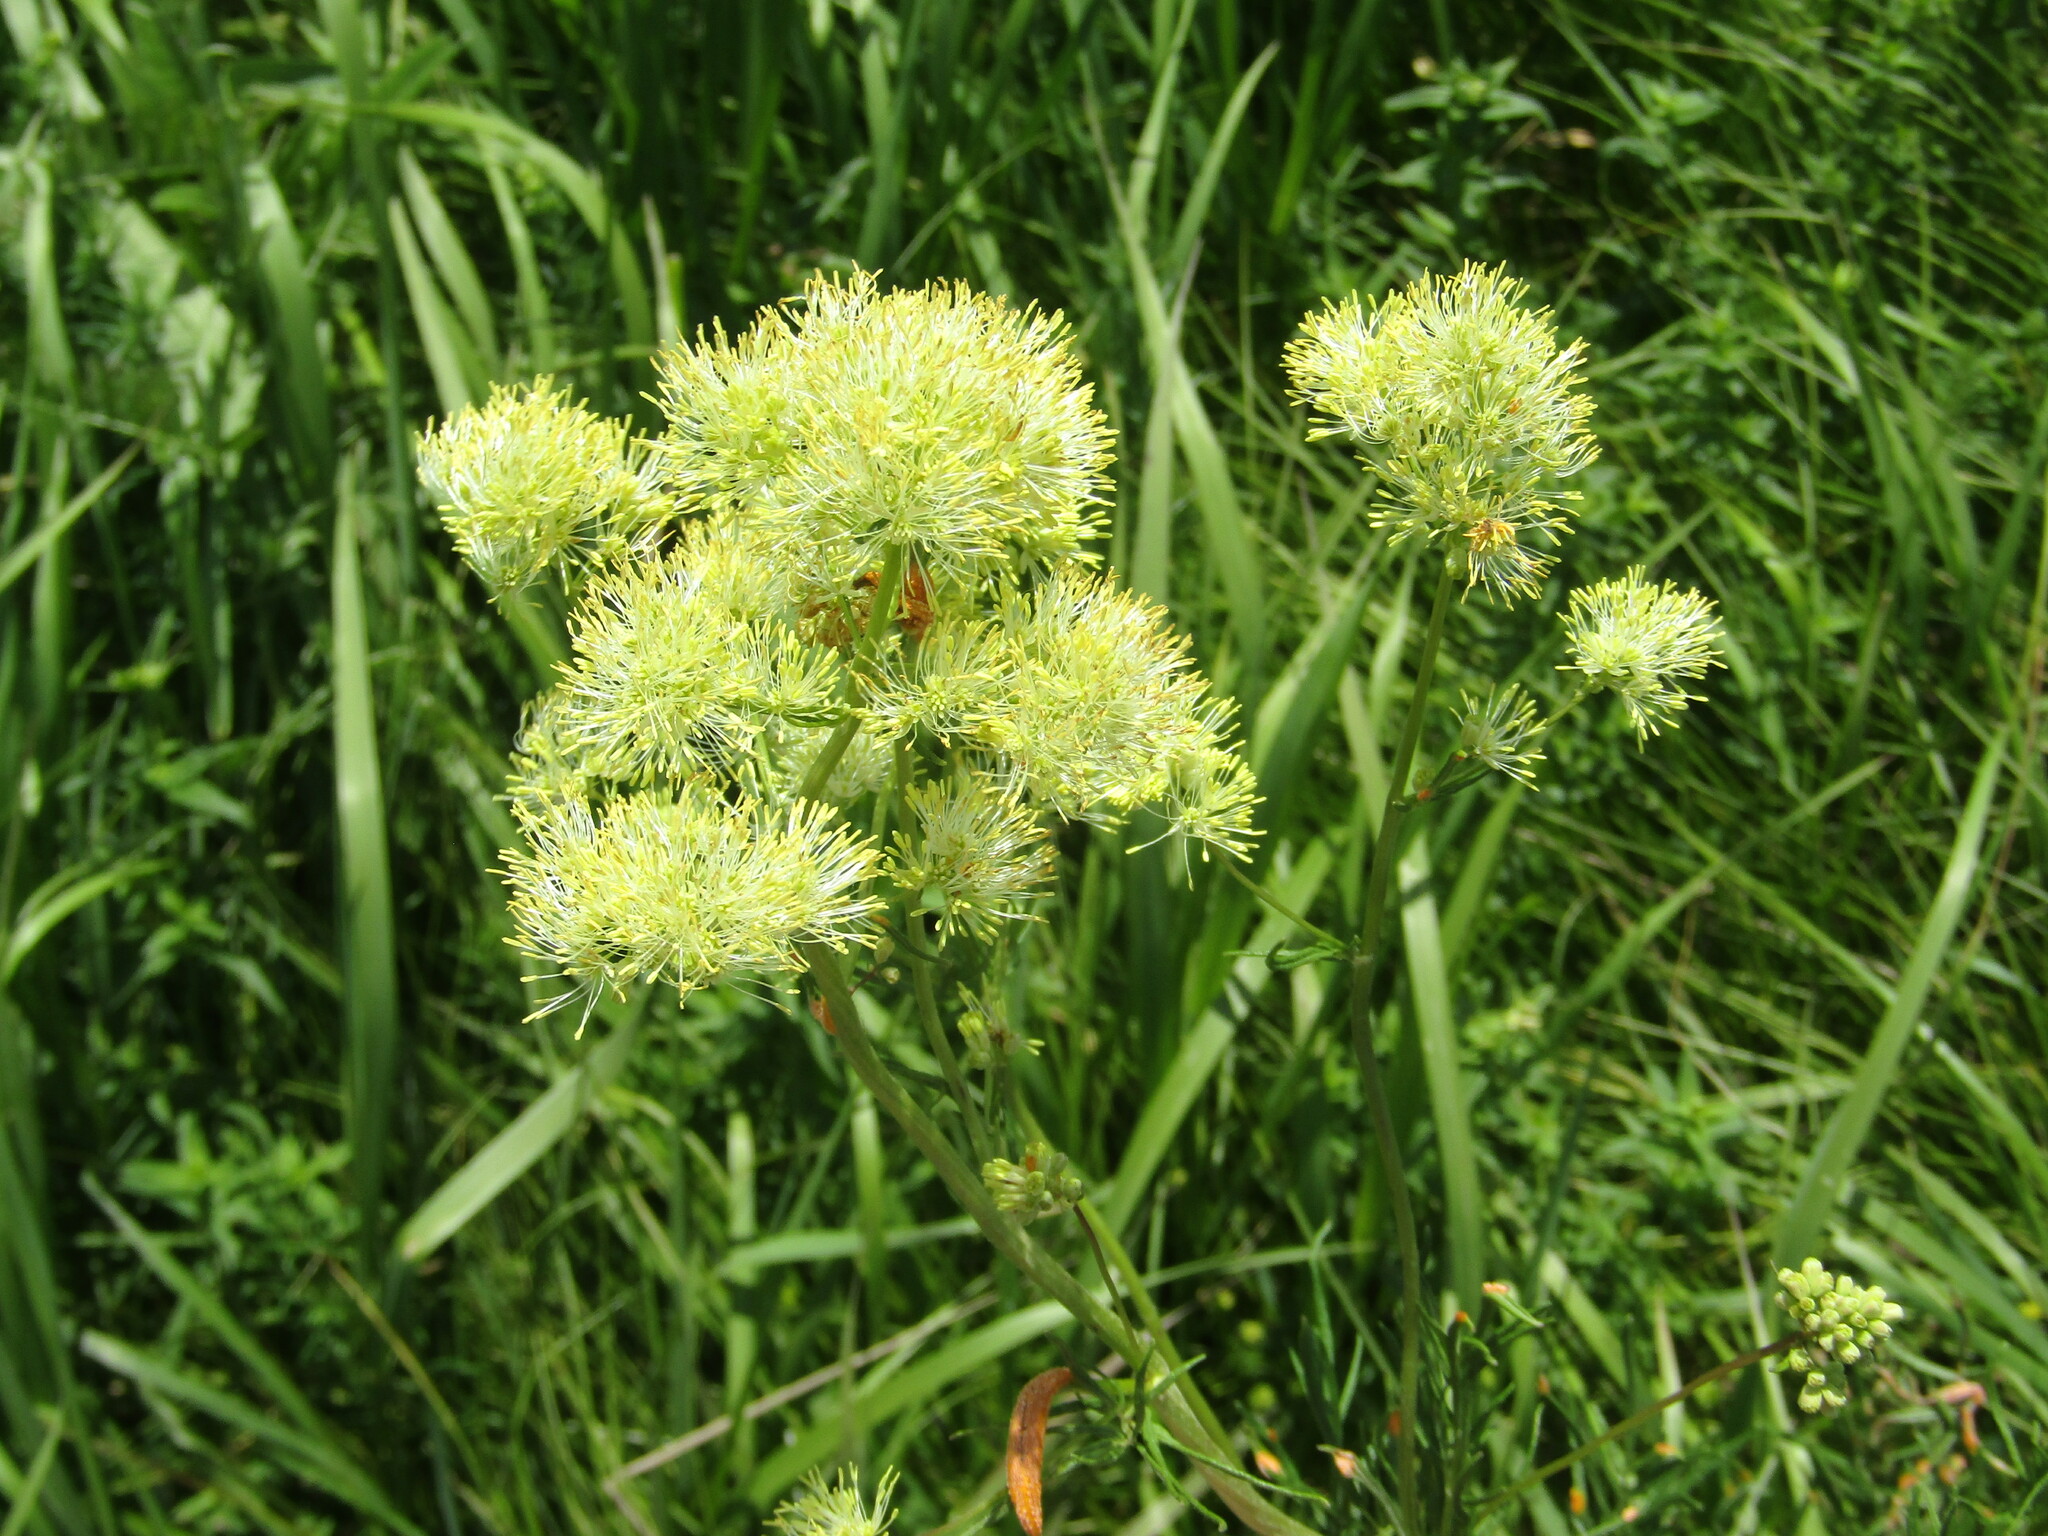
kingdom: Plantae
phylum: Tracheophyta
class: Magnoliopsida
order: Ranunculales
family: Ranunculaceae
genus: Thalictrum
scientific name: Thalictrum lucidum
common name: Shining meadow-rue
